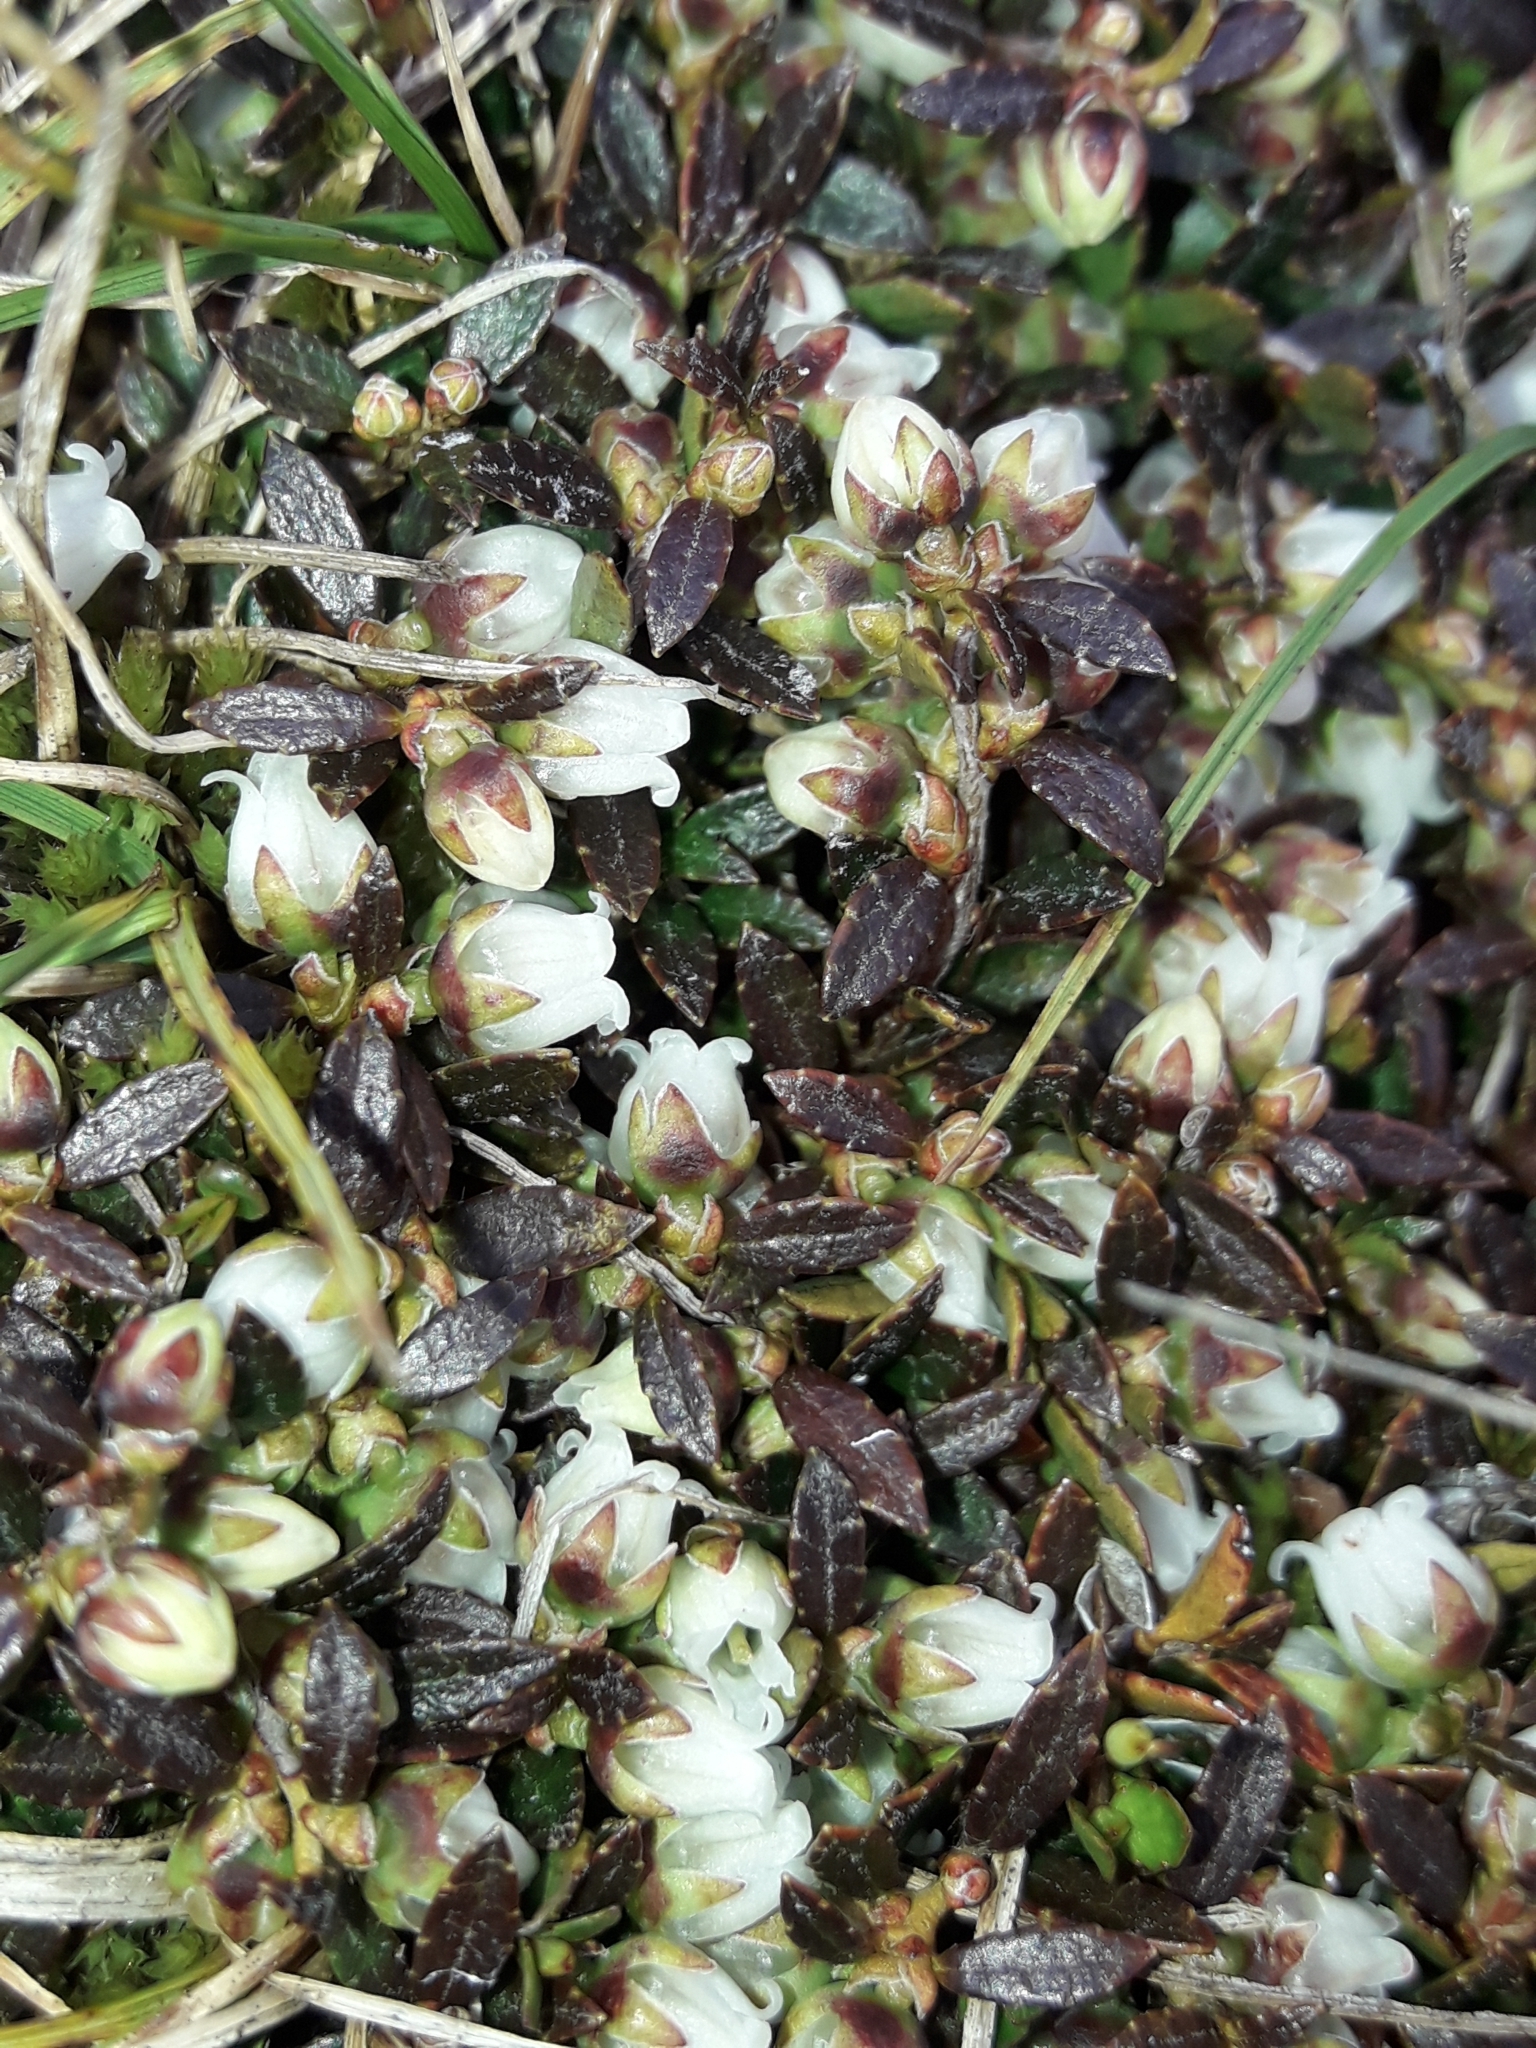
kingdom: Plantae
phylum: Tracheophyta
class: Magnoliopsida
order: Ericales
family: Ericaceae
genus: Gaultheria
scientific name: Gaultheria parvula
